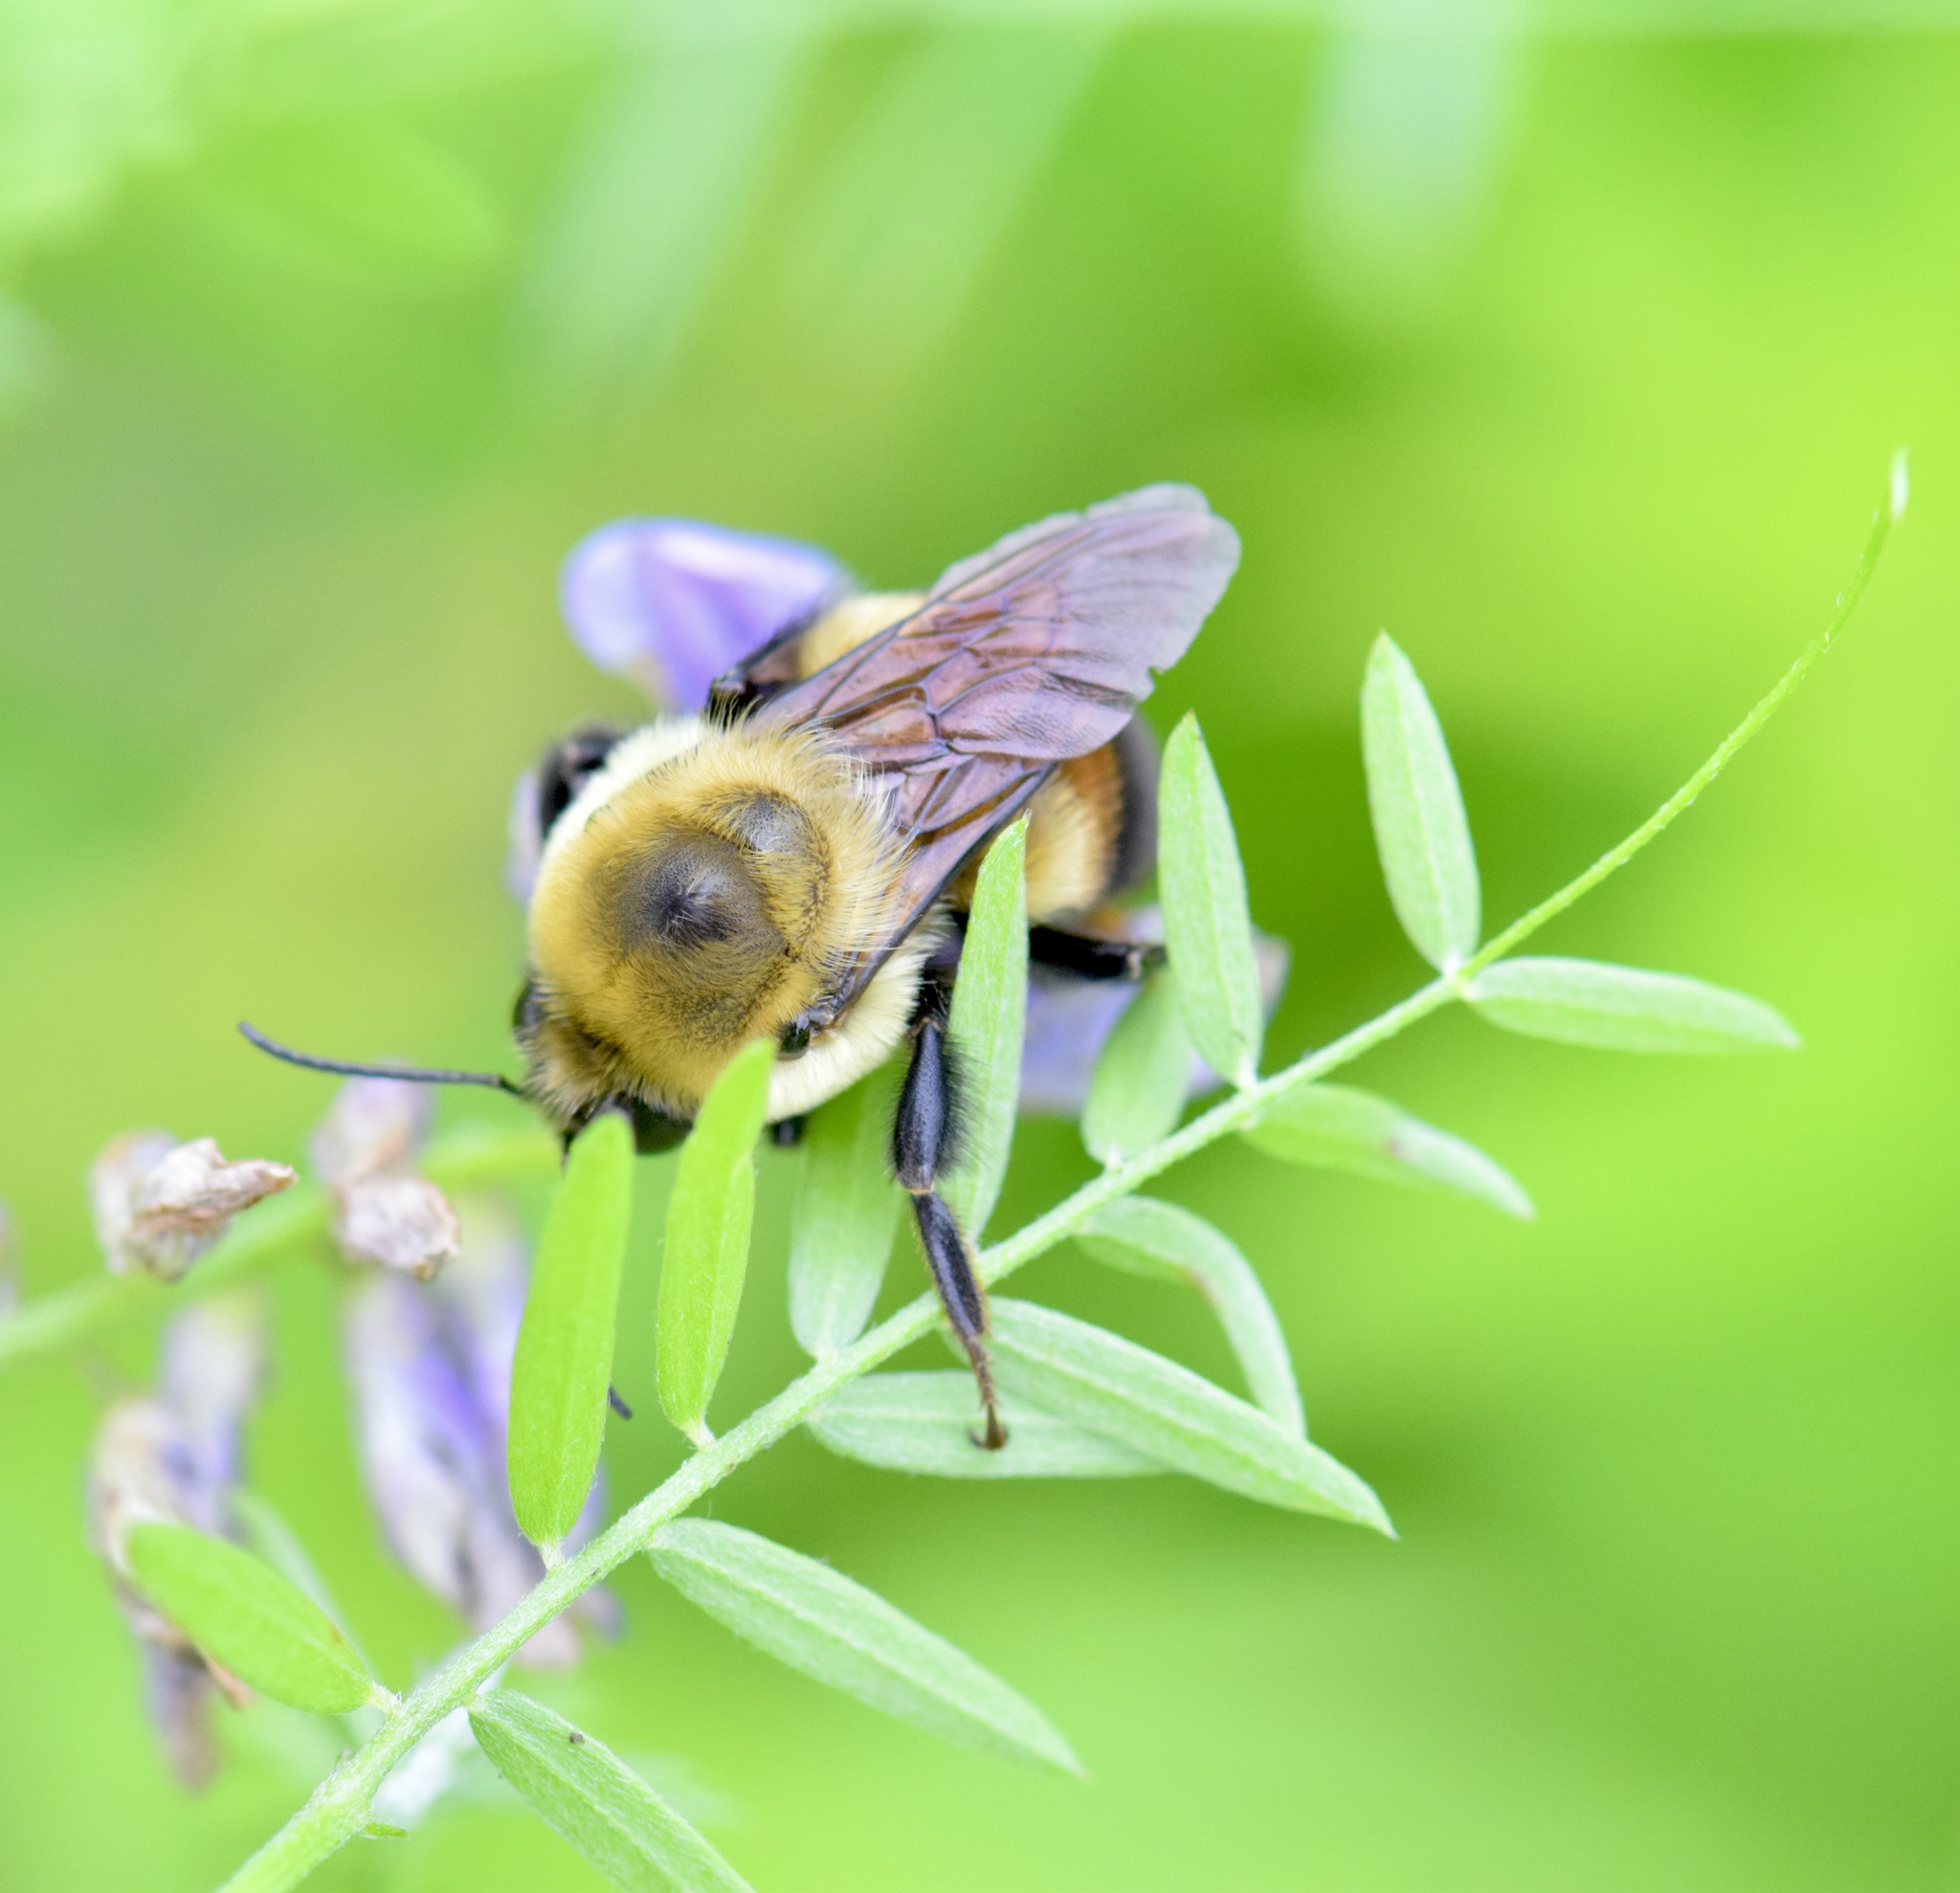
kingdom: Animalia
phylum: Arthropoda
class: Insecta
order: Hymenoptera
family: Apidae
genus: Bombus
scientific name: Bombus griseocollis
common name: Brown-belted bumble bee
